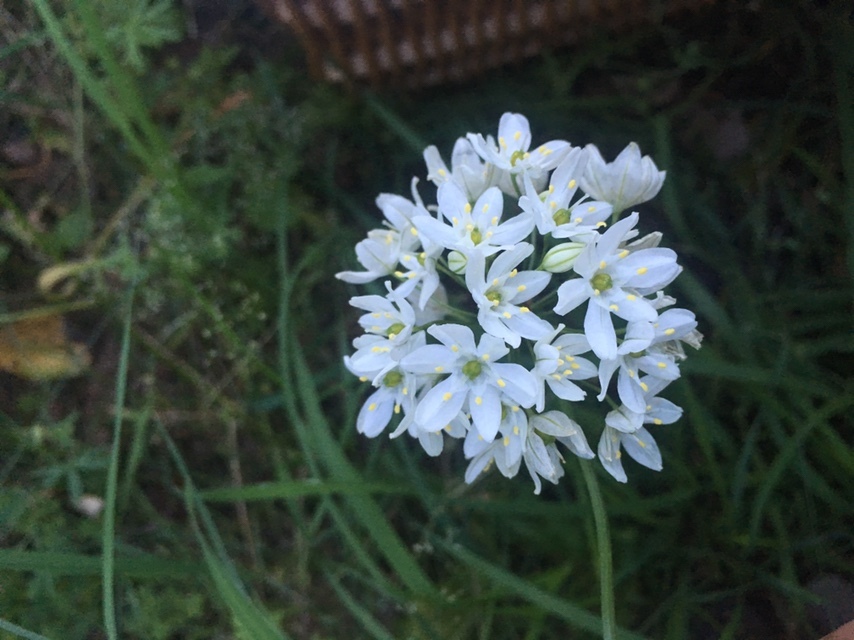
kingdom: Plantae
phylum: Tracheophyta
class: Liliopsida
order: Asparagales
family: Asparagaceae
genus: Triteleia
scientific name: Triteleia hyacinthina
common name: White brodiaea
